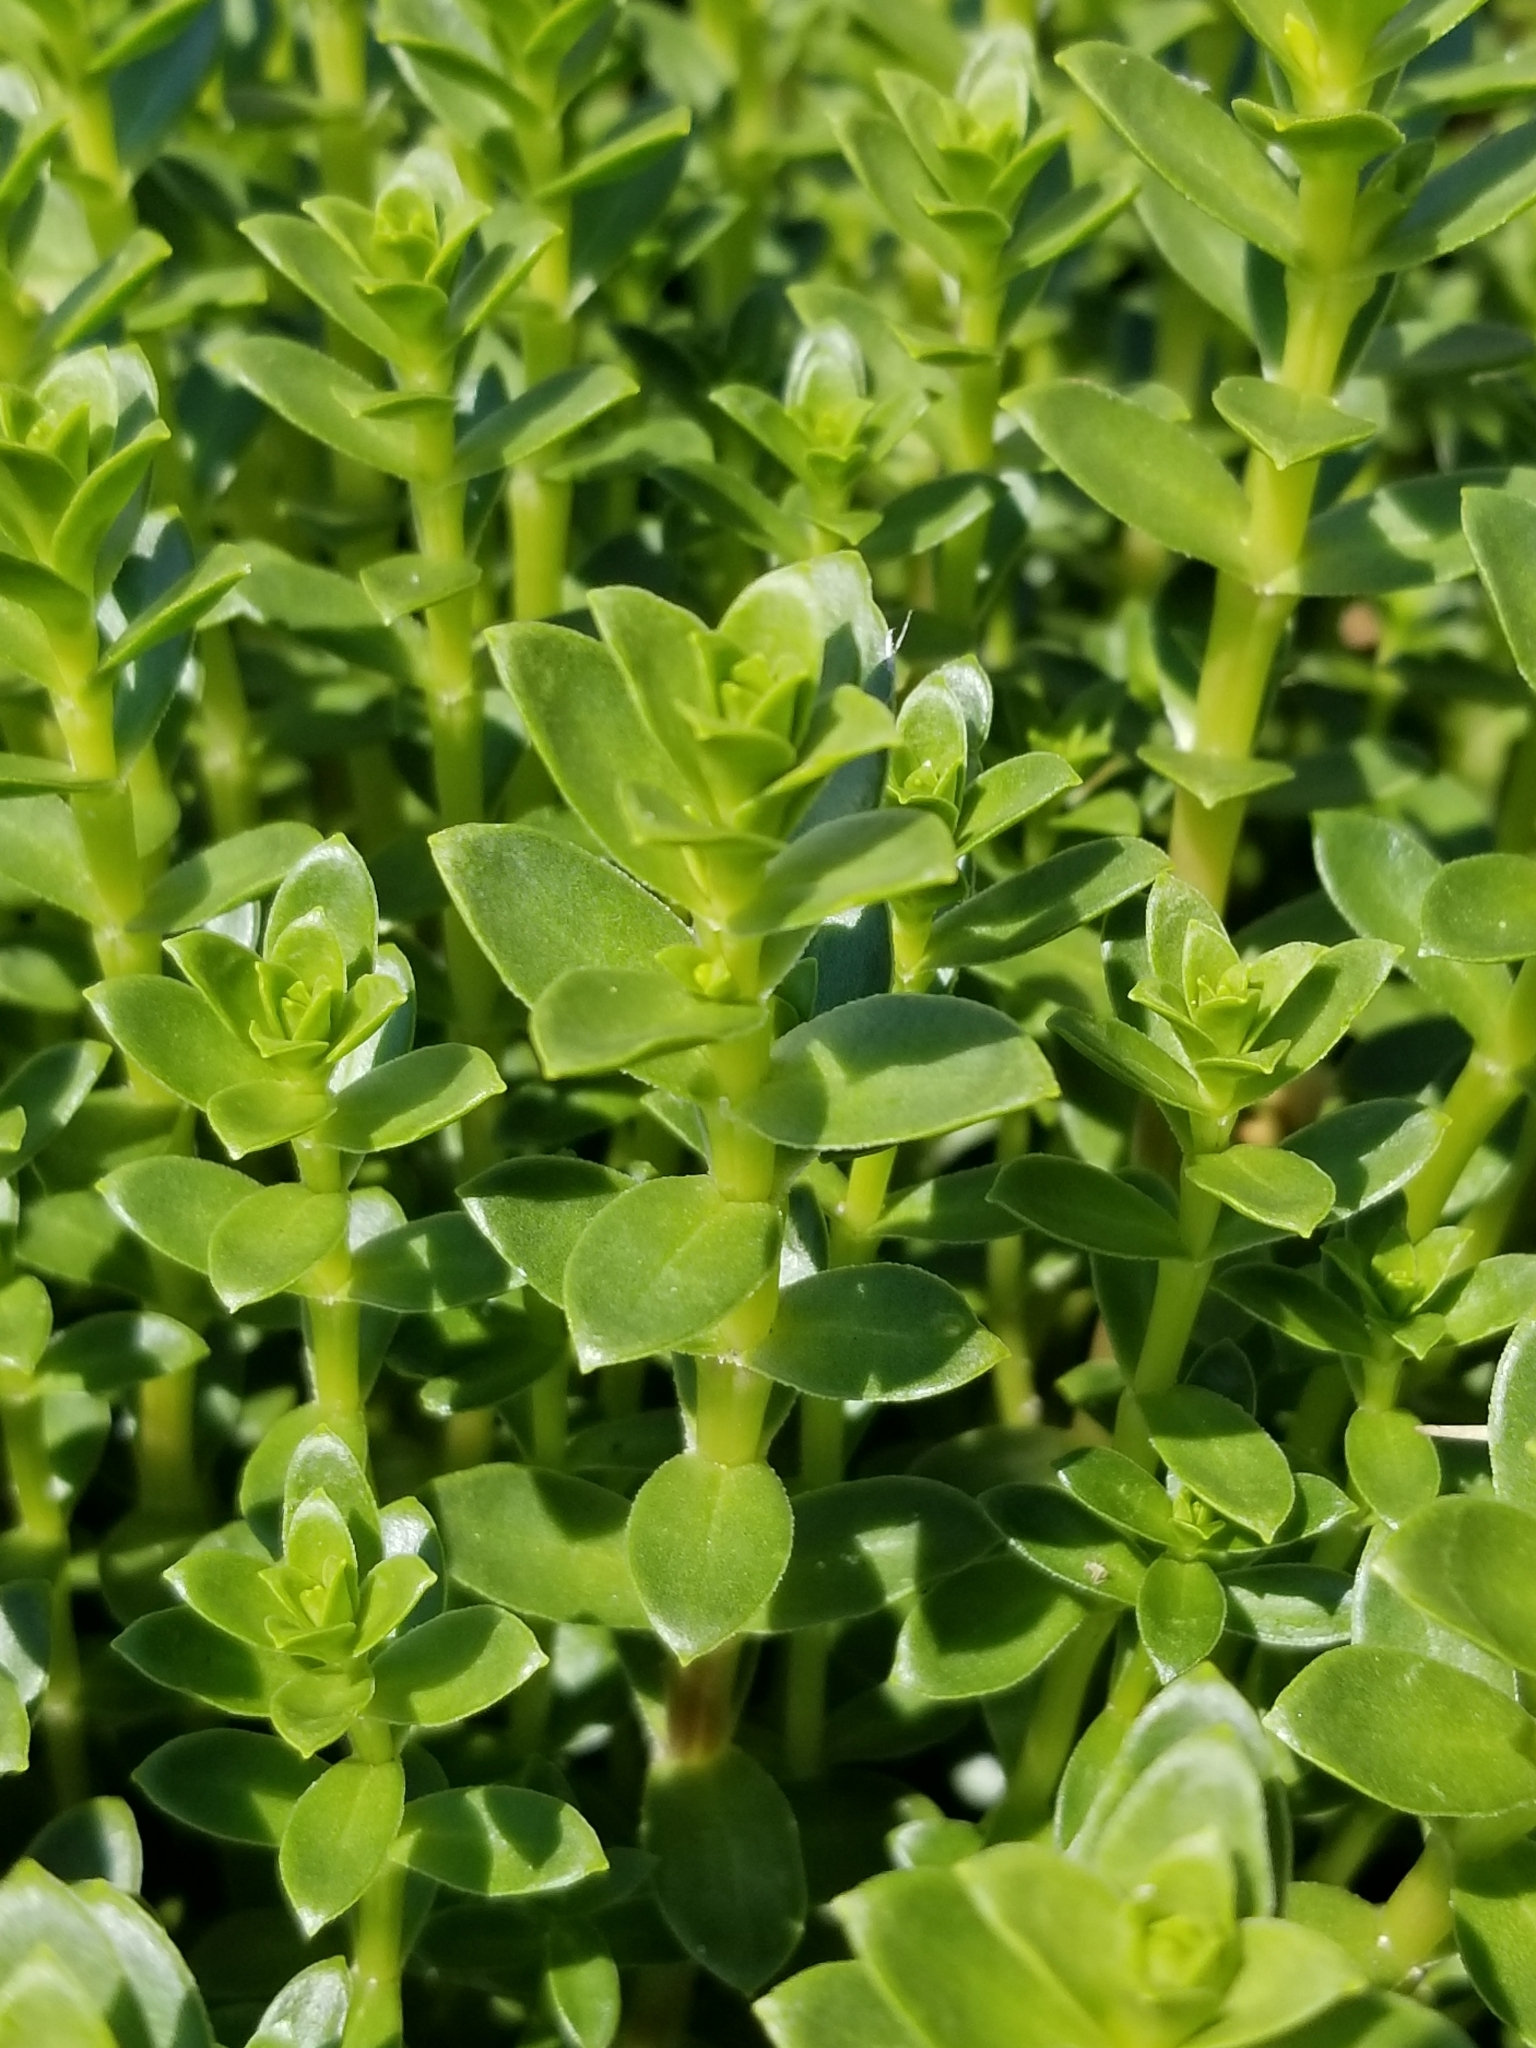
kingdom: Plantae
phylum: Tracheophyta
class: Magnoliopsida
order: Caryophyllales
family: Caryophyllaceae
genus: Honckenya
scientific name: Honckenya peploides
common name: Sea sandwort
